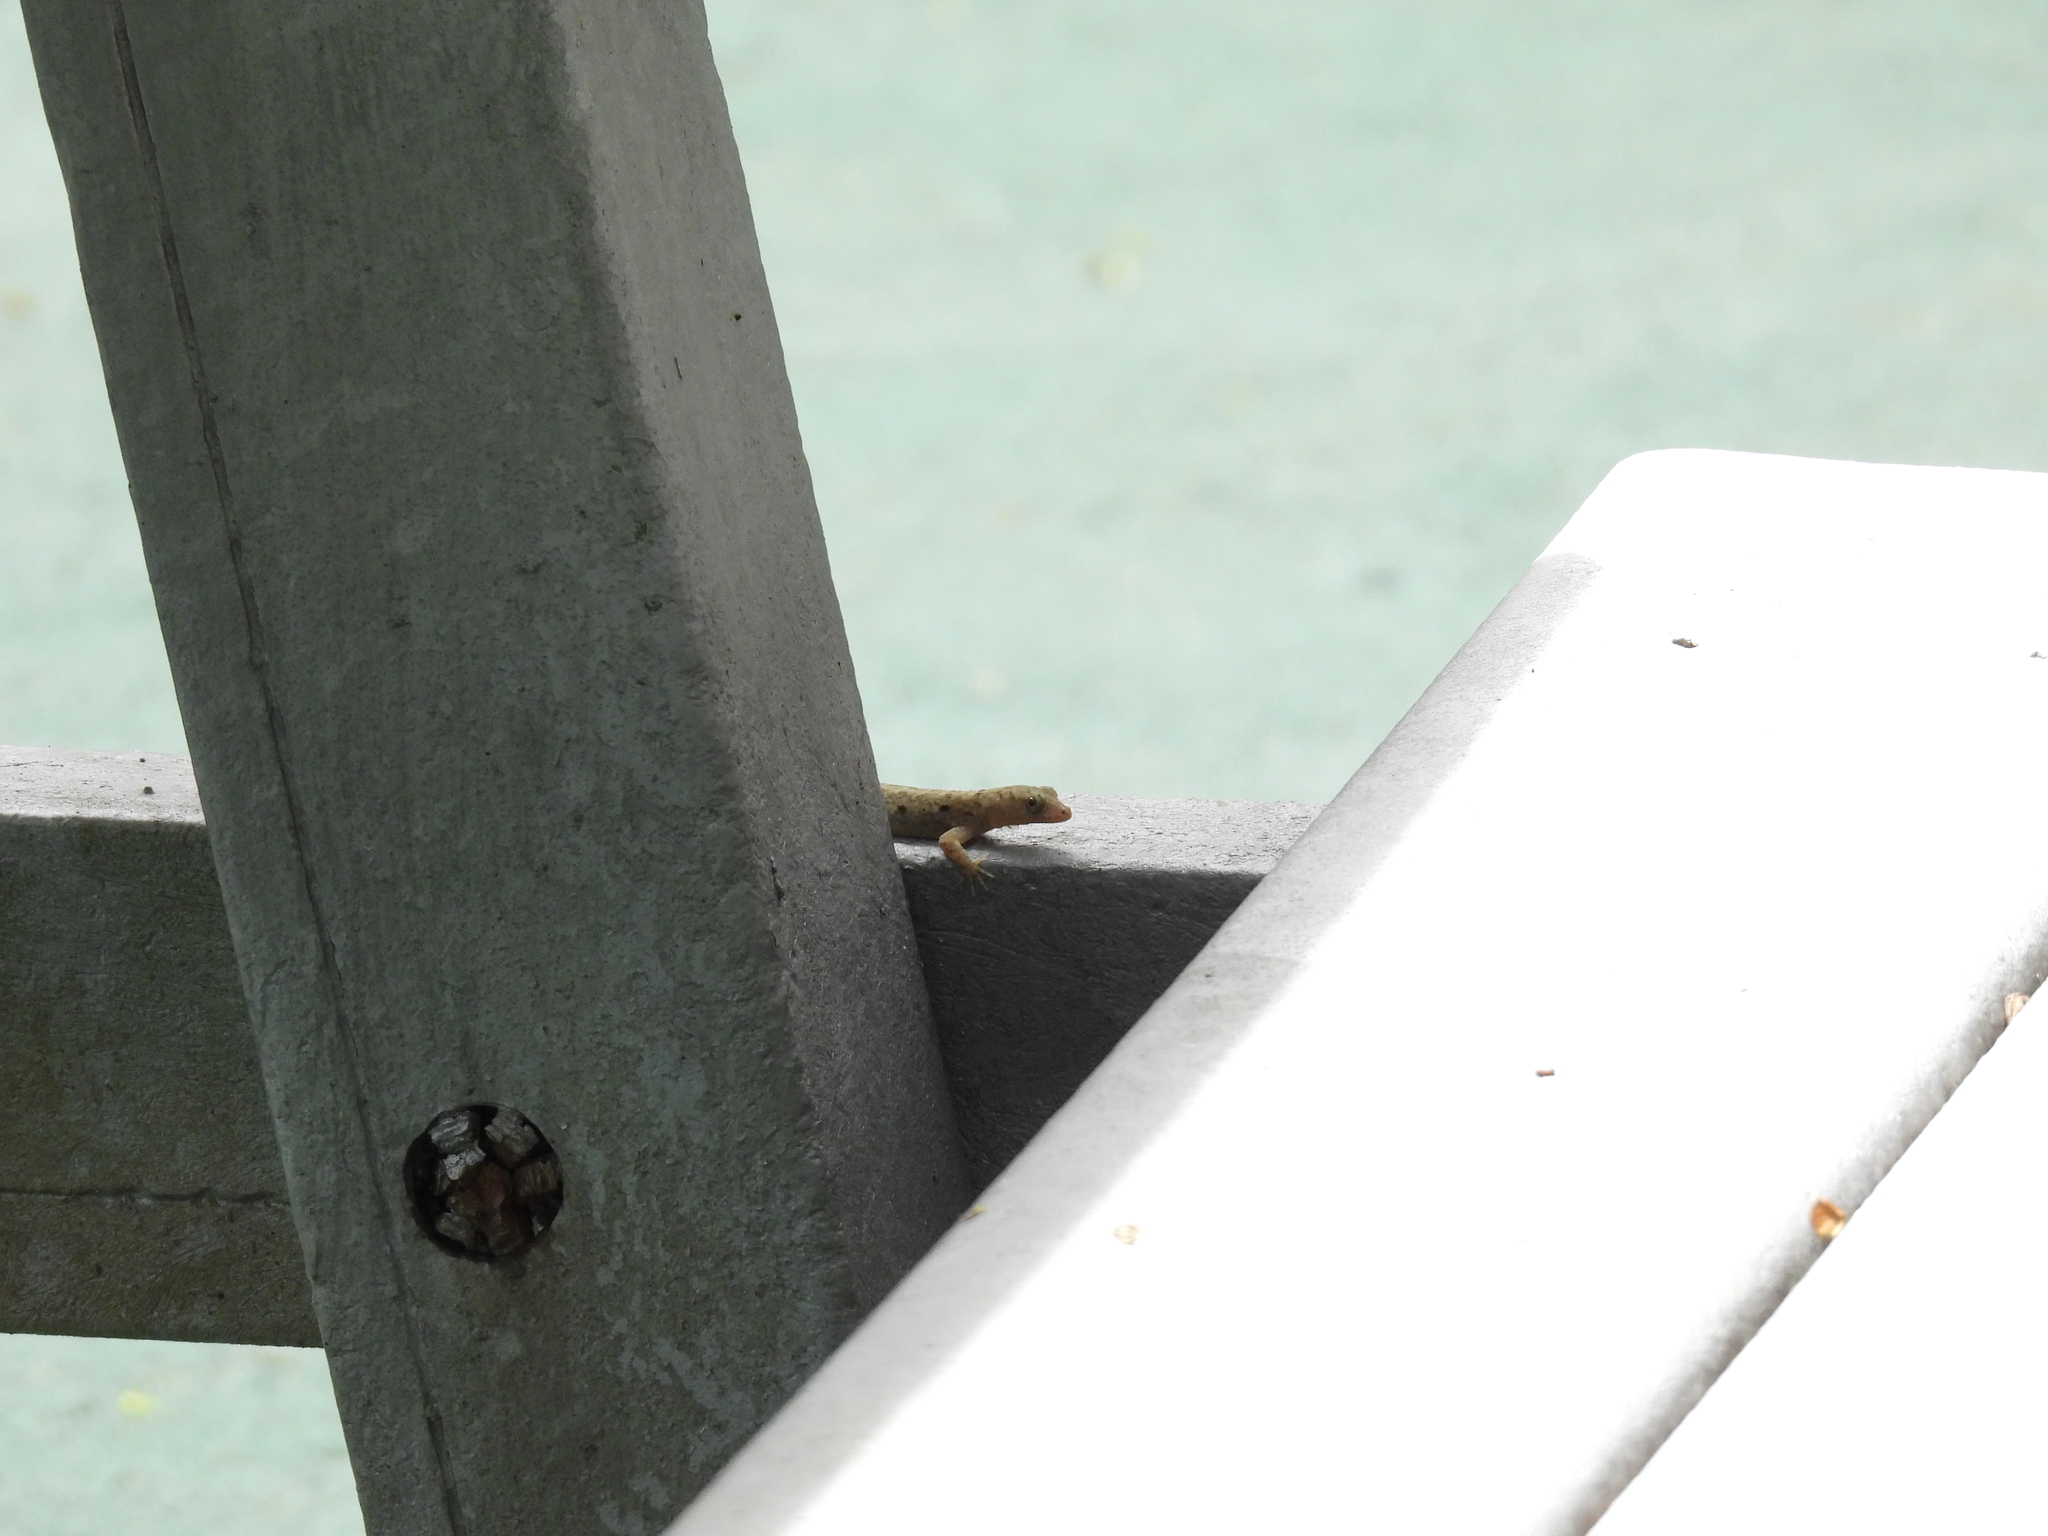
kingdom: Animalia
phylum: Chordata
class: Squamata
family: Sphaerodactylidae
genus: Gonatodes
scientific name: Gonatodes albogularis
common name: Yellow-headed gecko
